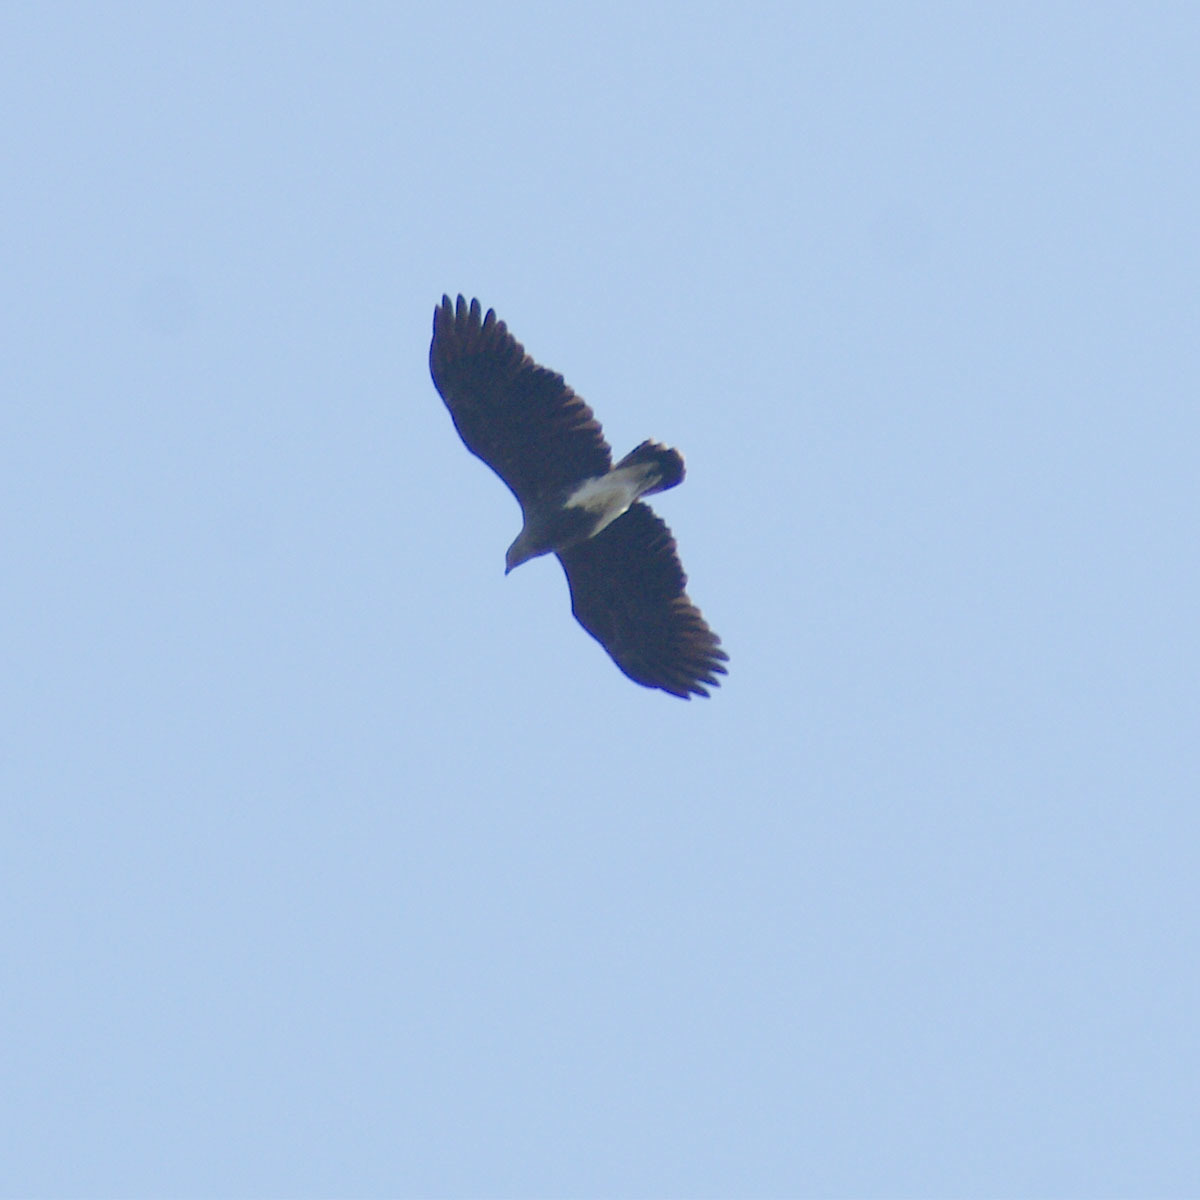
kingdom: Animalia
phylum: Chordata
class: Aves
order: Accipitriformes
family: Accipitridae
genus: Icthyophaga
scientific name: Icthyophaga humilis
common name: Lesser fish-eagle
